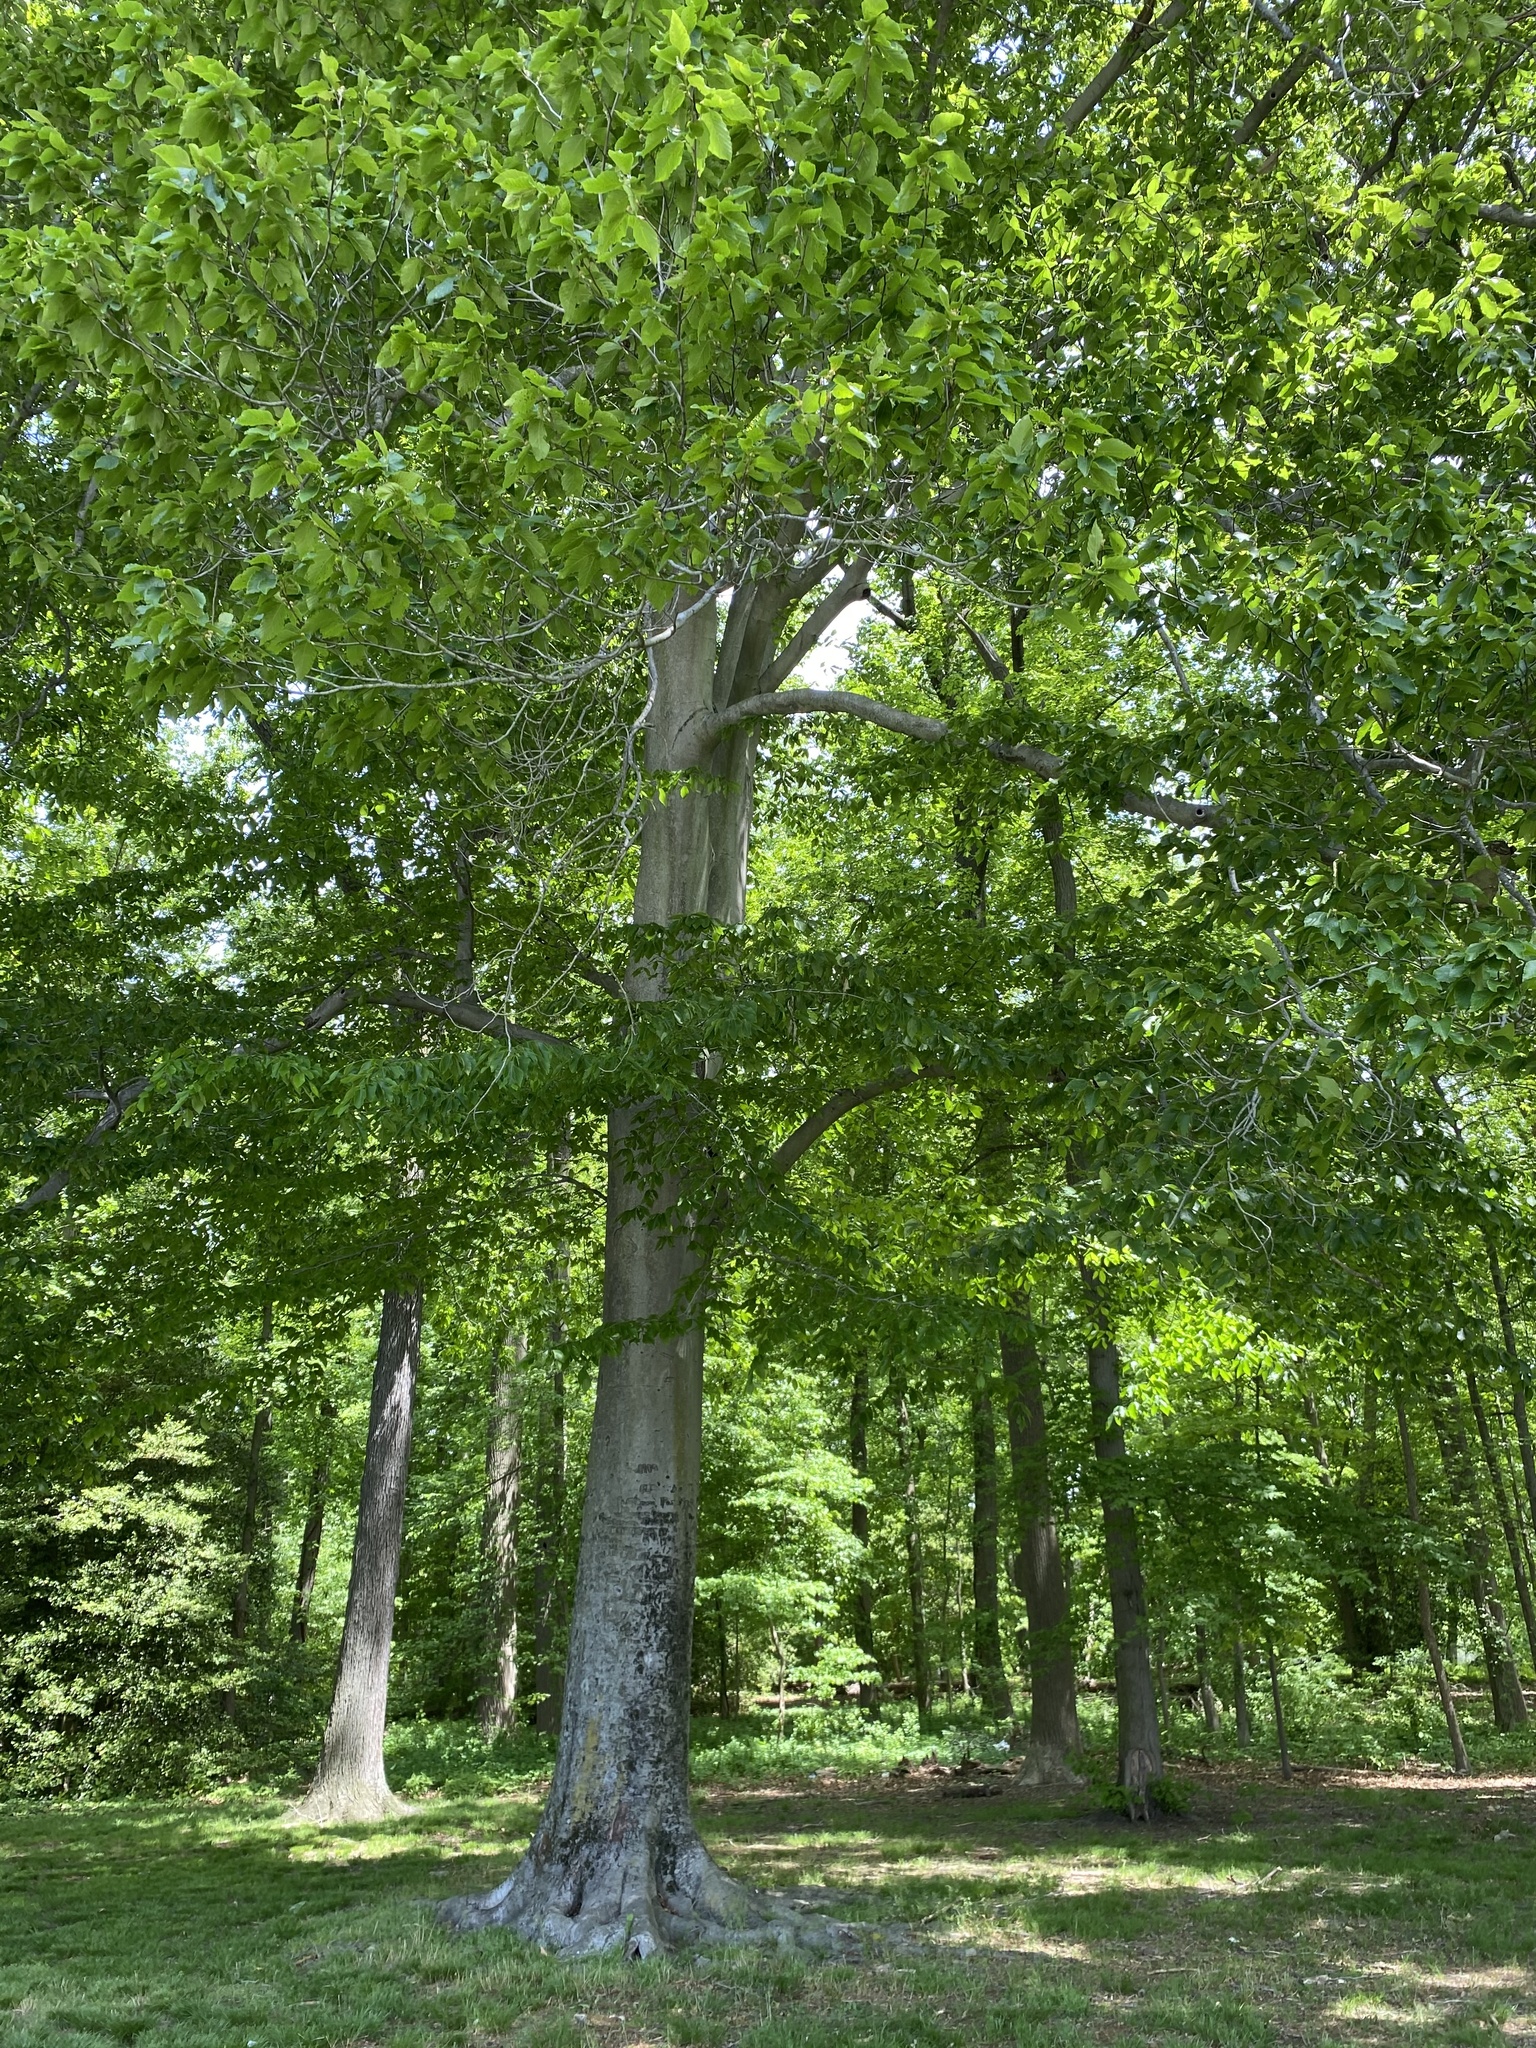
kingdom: Plantae
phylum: Tracheophyta
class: Magnoliopsida
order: Fagales
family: Fagaceae
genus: Fagus
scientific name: Fagus grandifolia
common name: American beech
